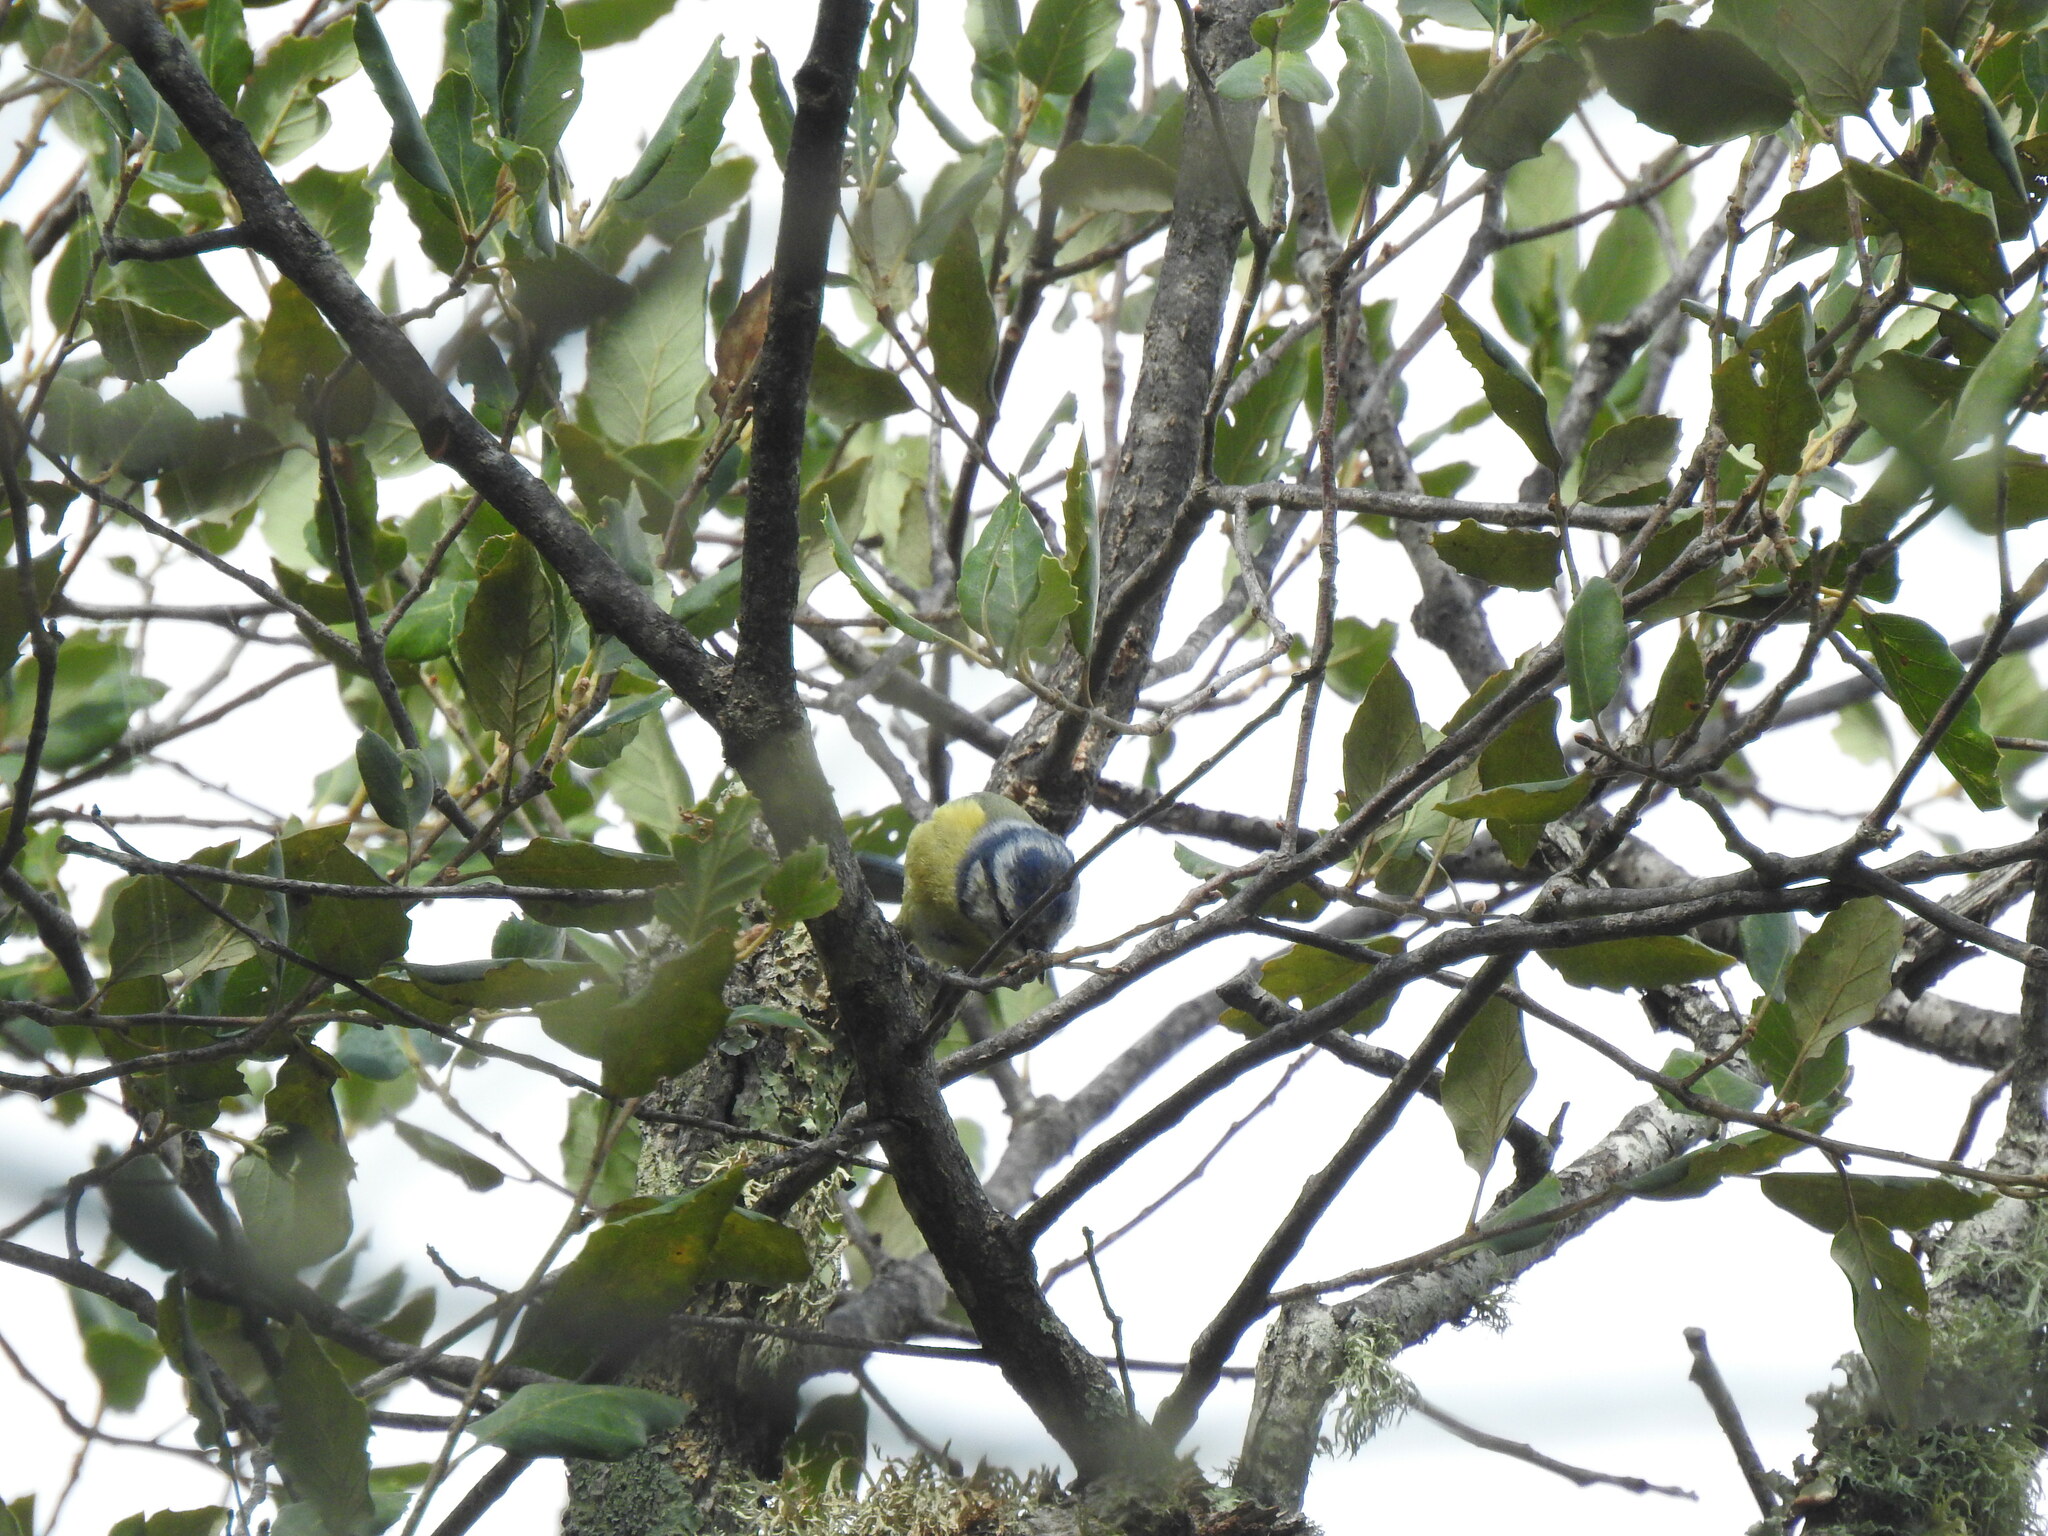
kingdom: Animalia
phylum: Chordata
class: Aves
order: Passeriformes
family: Paridae
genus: Cyanistes
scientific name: Cyanistes caeruleus
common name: Eurasian blue tit
